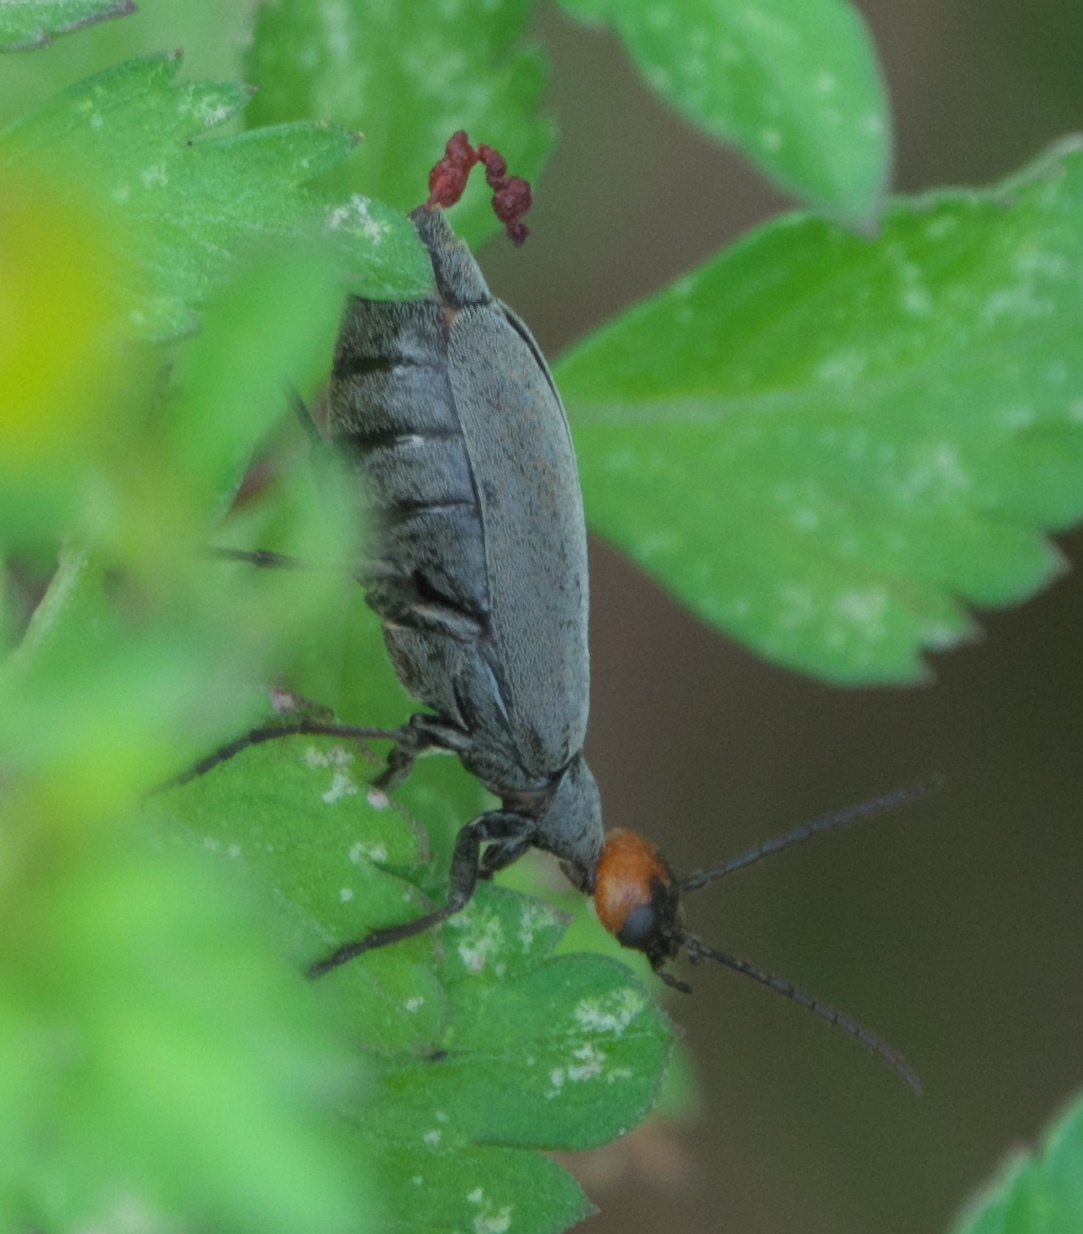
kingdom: Animalia
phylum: Arthropoda
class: Insecta
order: Coleoptera
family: Meloidae
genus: Epicauta
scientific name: Epicauta atrata
